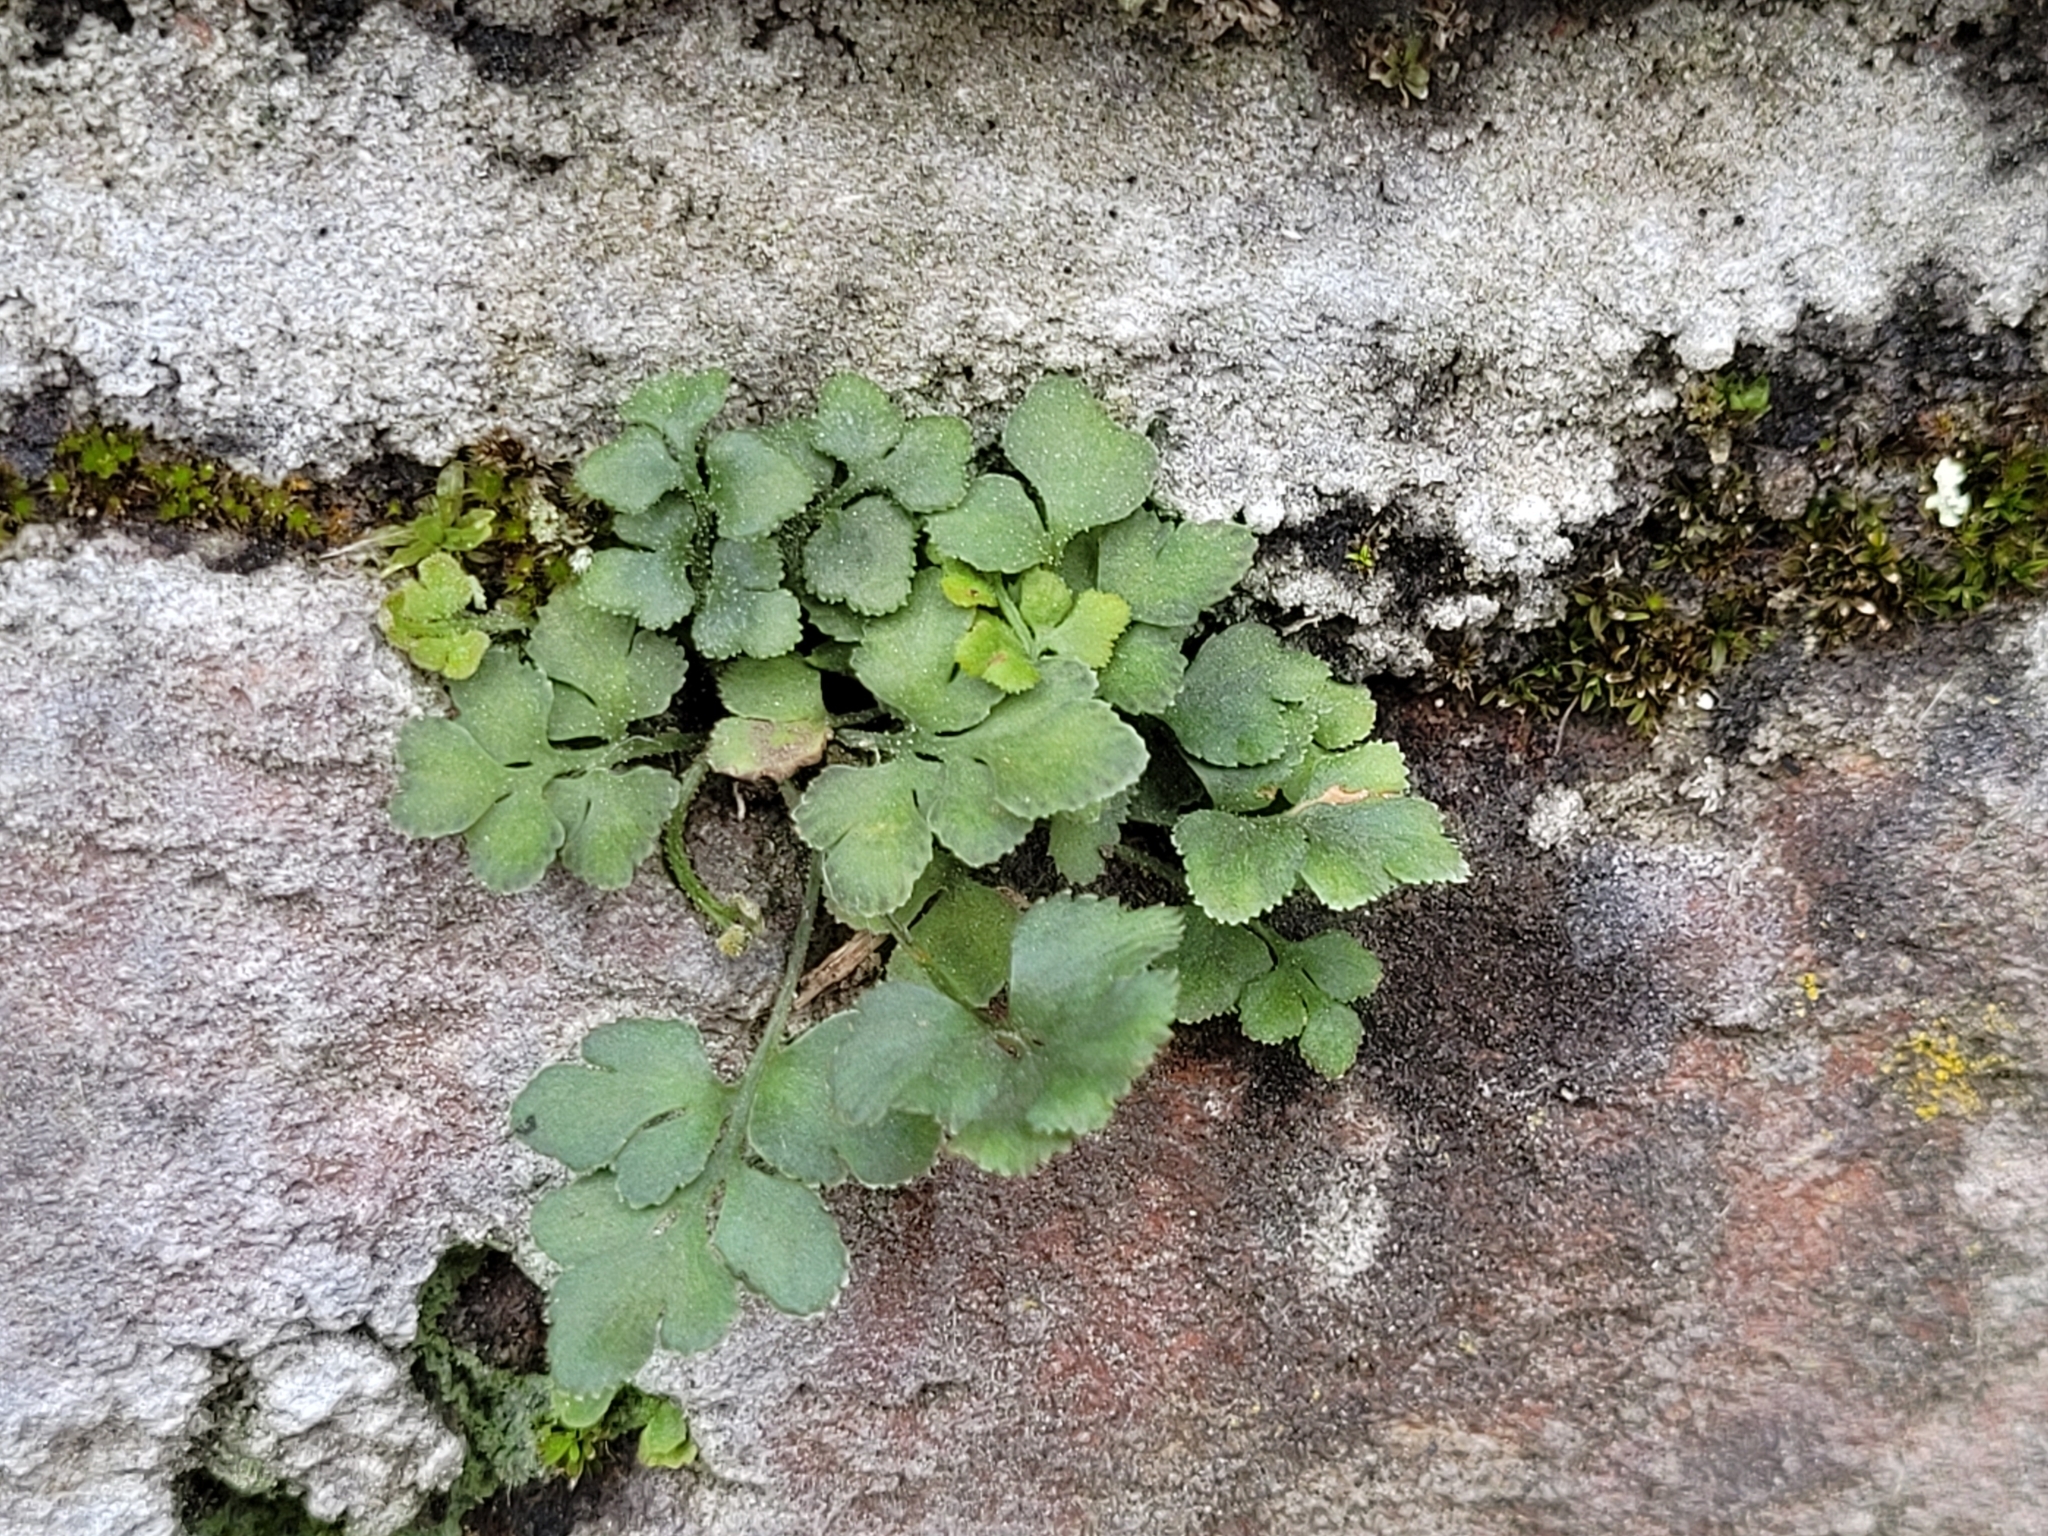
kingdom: Plantae
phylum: Tracheophyta
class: Polypodiopsida
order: Polypodiales
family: Aspleniaceae
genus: Asplenium
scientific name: Asplenium ruta-muraria
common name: Wall-rue
